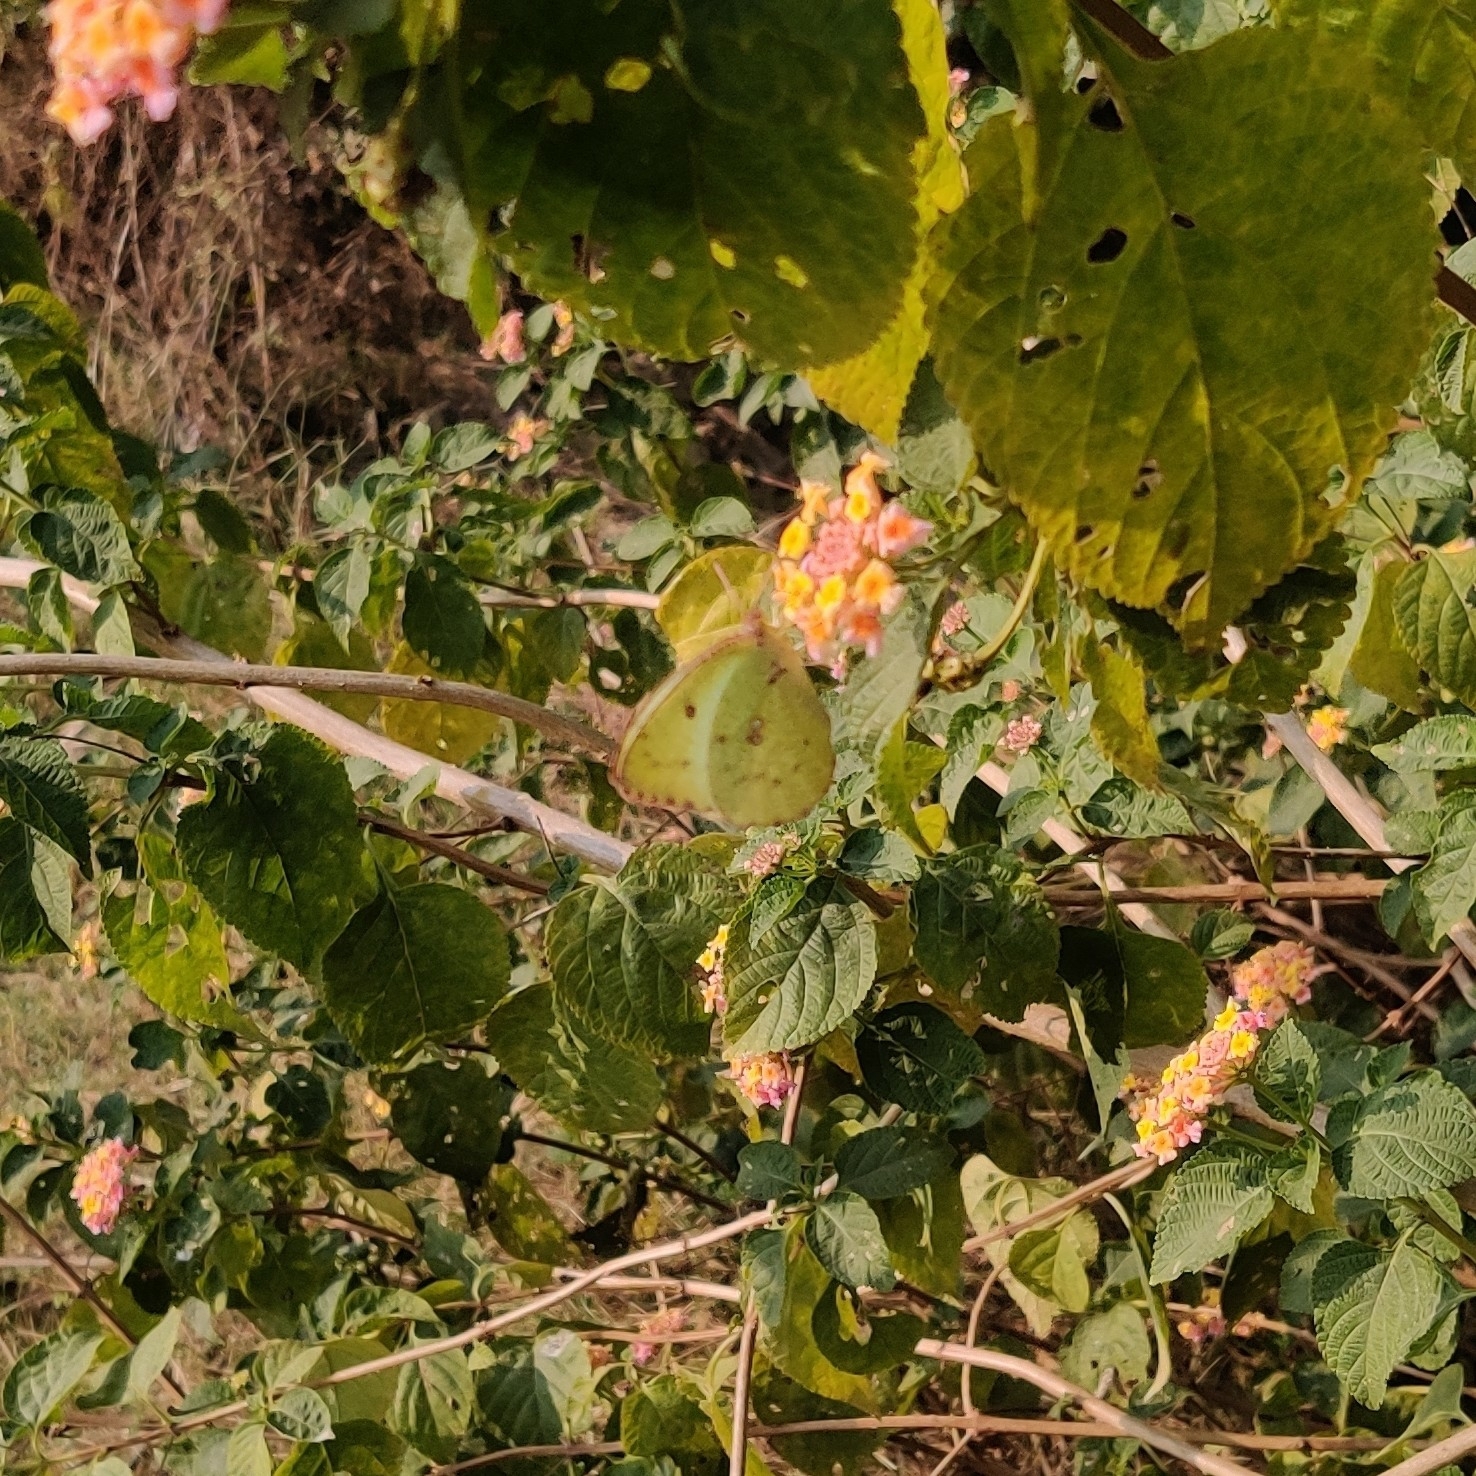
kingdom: Animalia
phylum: Arthropoda
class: Insecta
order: Lepidoptera
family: Pieridae
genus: Catopsilia
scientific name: Catopsilia pyranthe
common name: Mottled emigrant
